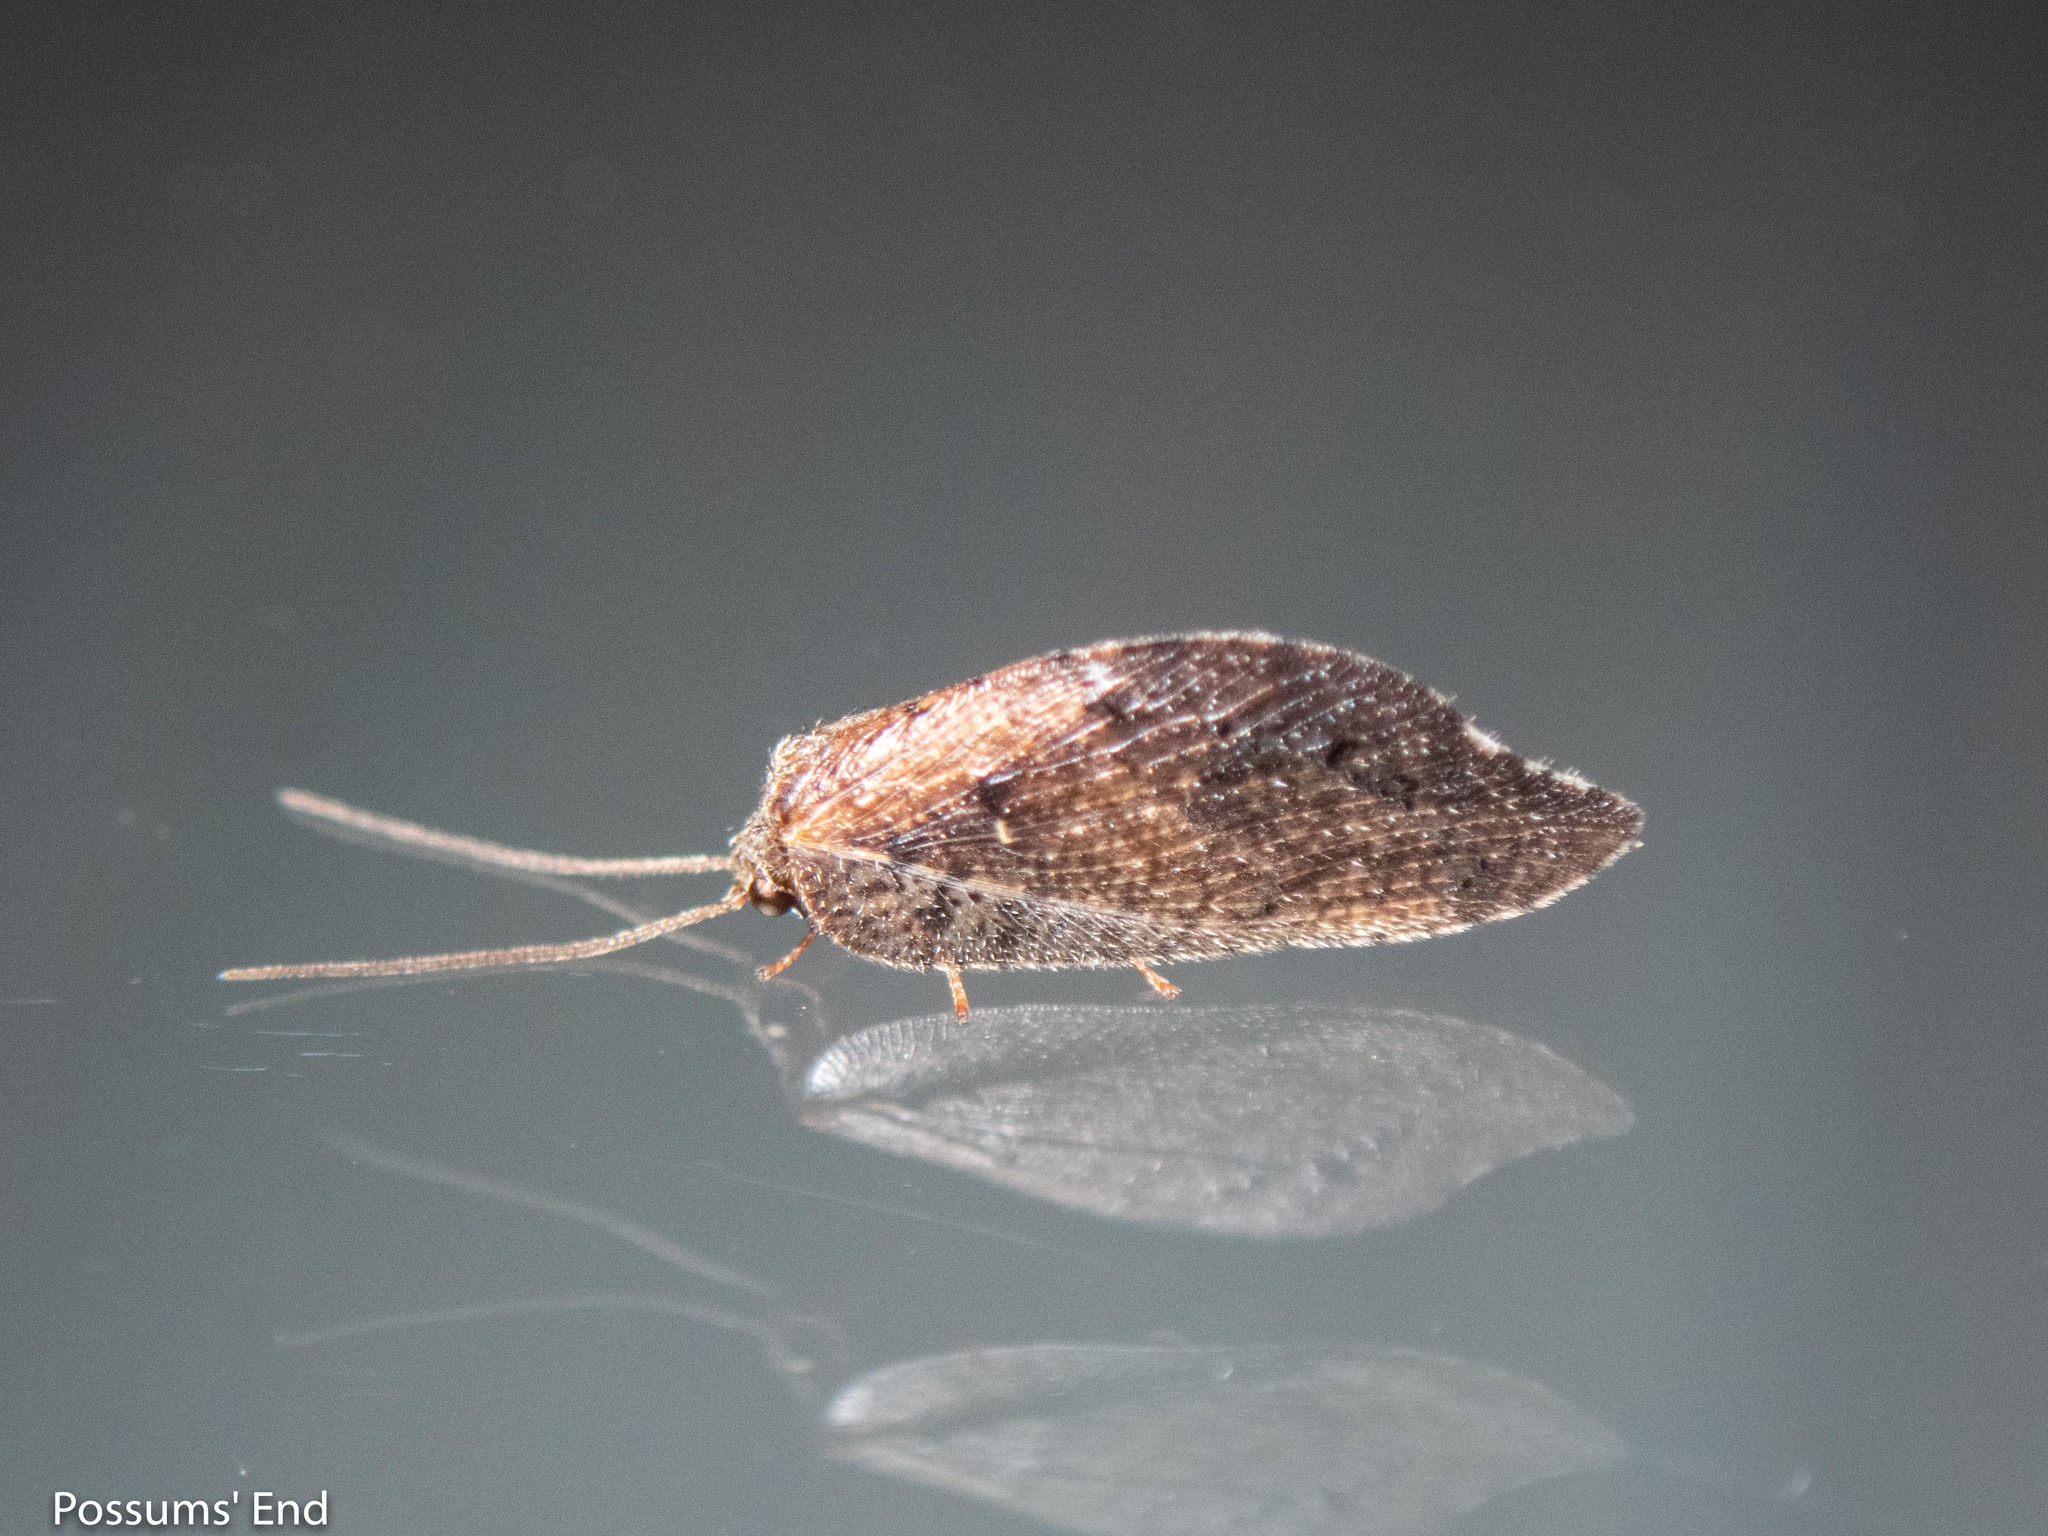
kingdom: Animalia
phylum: Arthropoda
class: Insecta
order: Neuroptera
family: Hemerobiidae
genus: Drepanacra
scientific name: Drepanacra binocula
